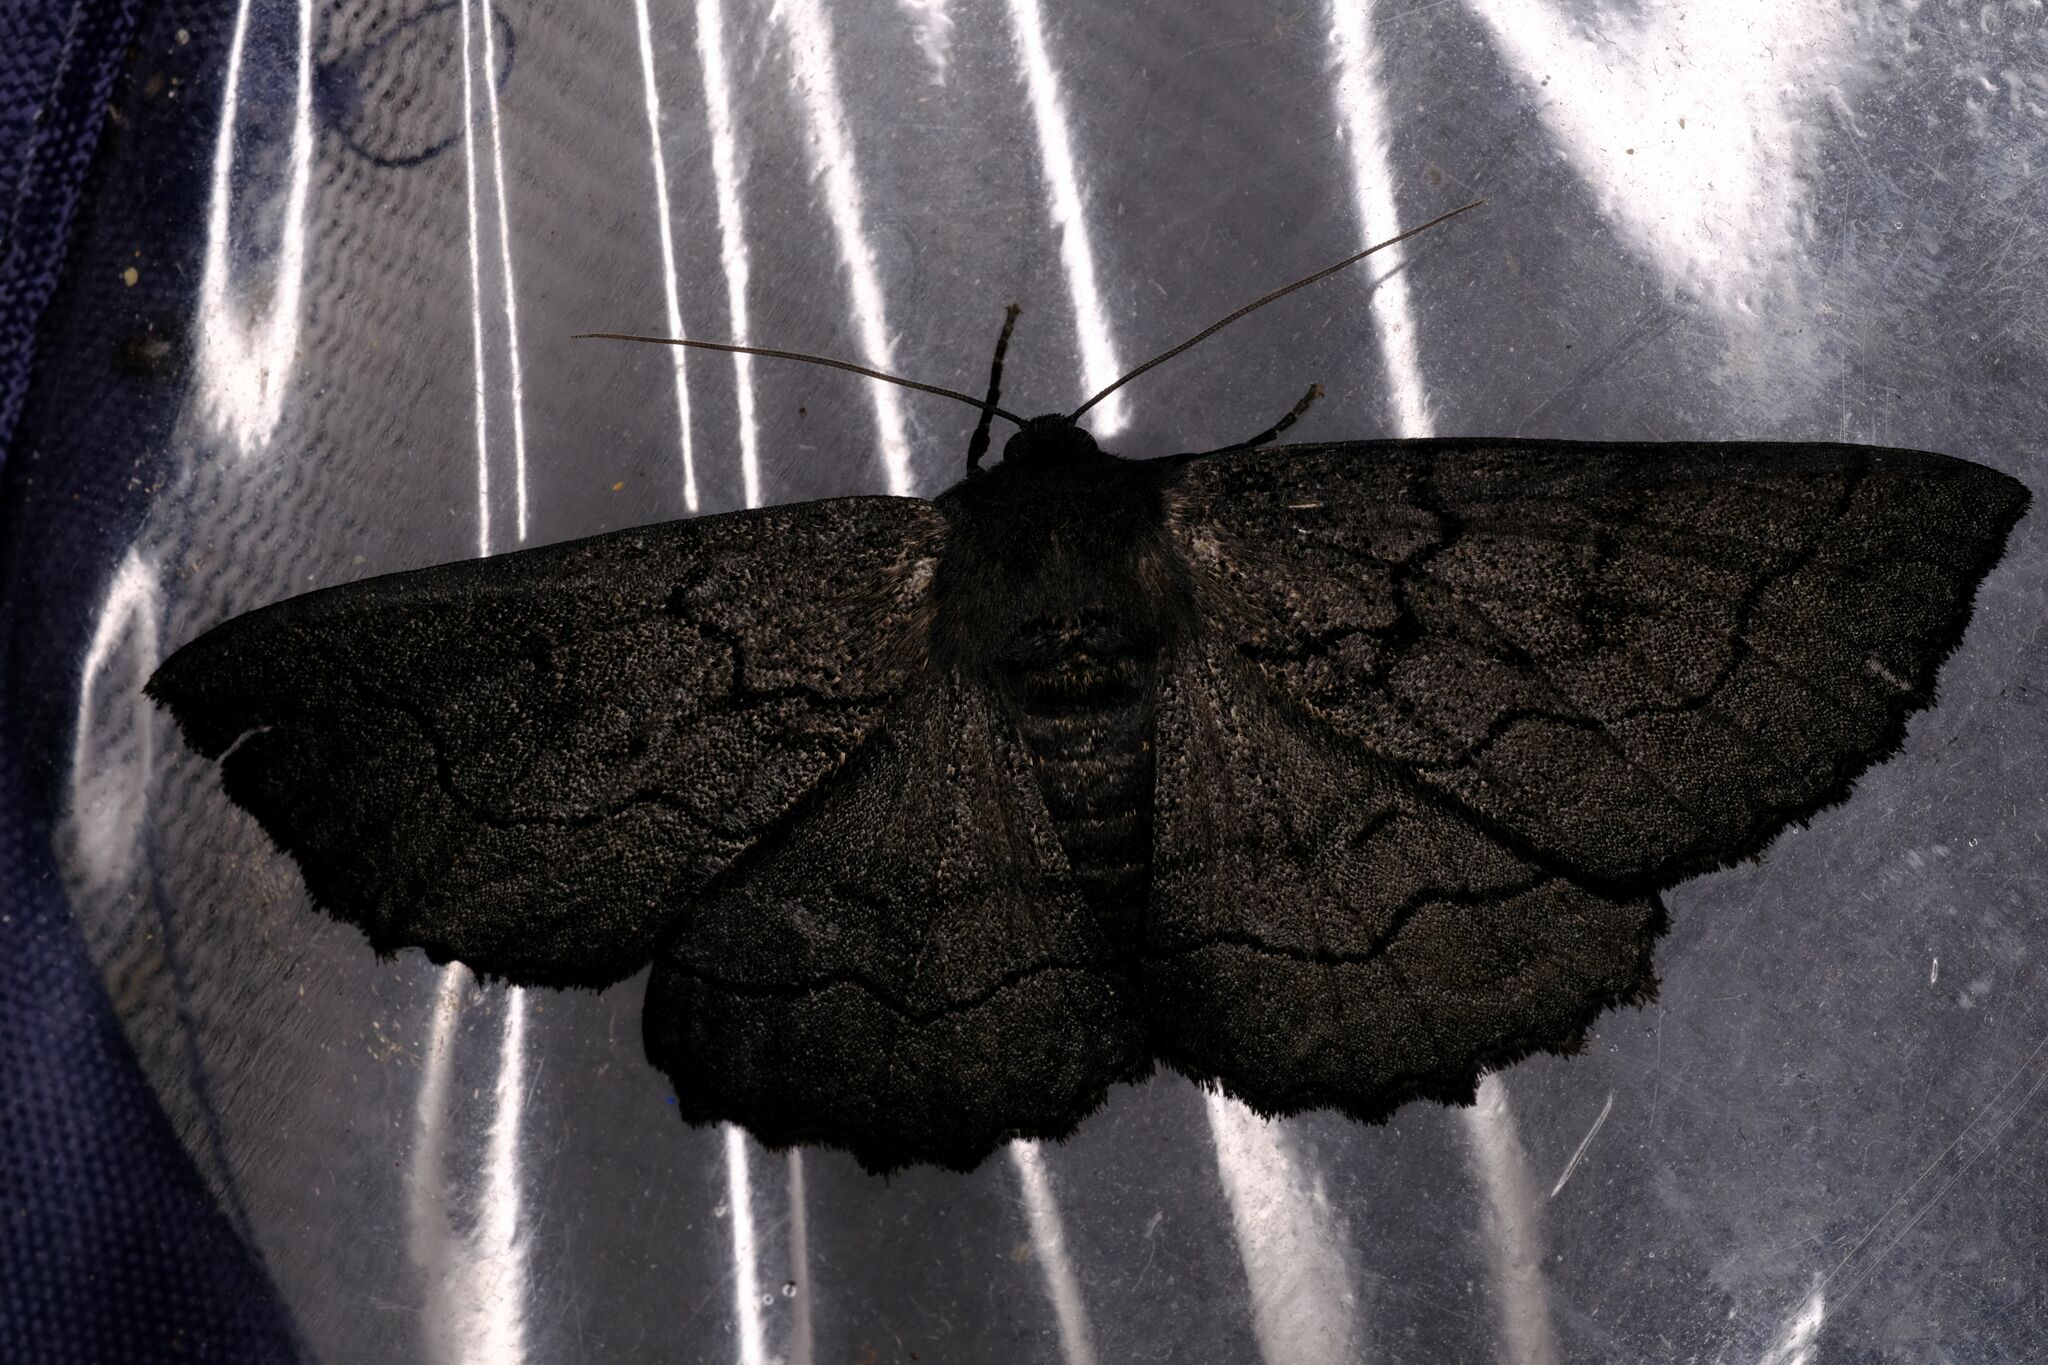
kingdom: Animalia
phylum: Arthropoda
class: Insecta
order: Lepidoptera
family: Geometridae
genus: Melanodes
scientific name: Melanodes anthracitaria
